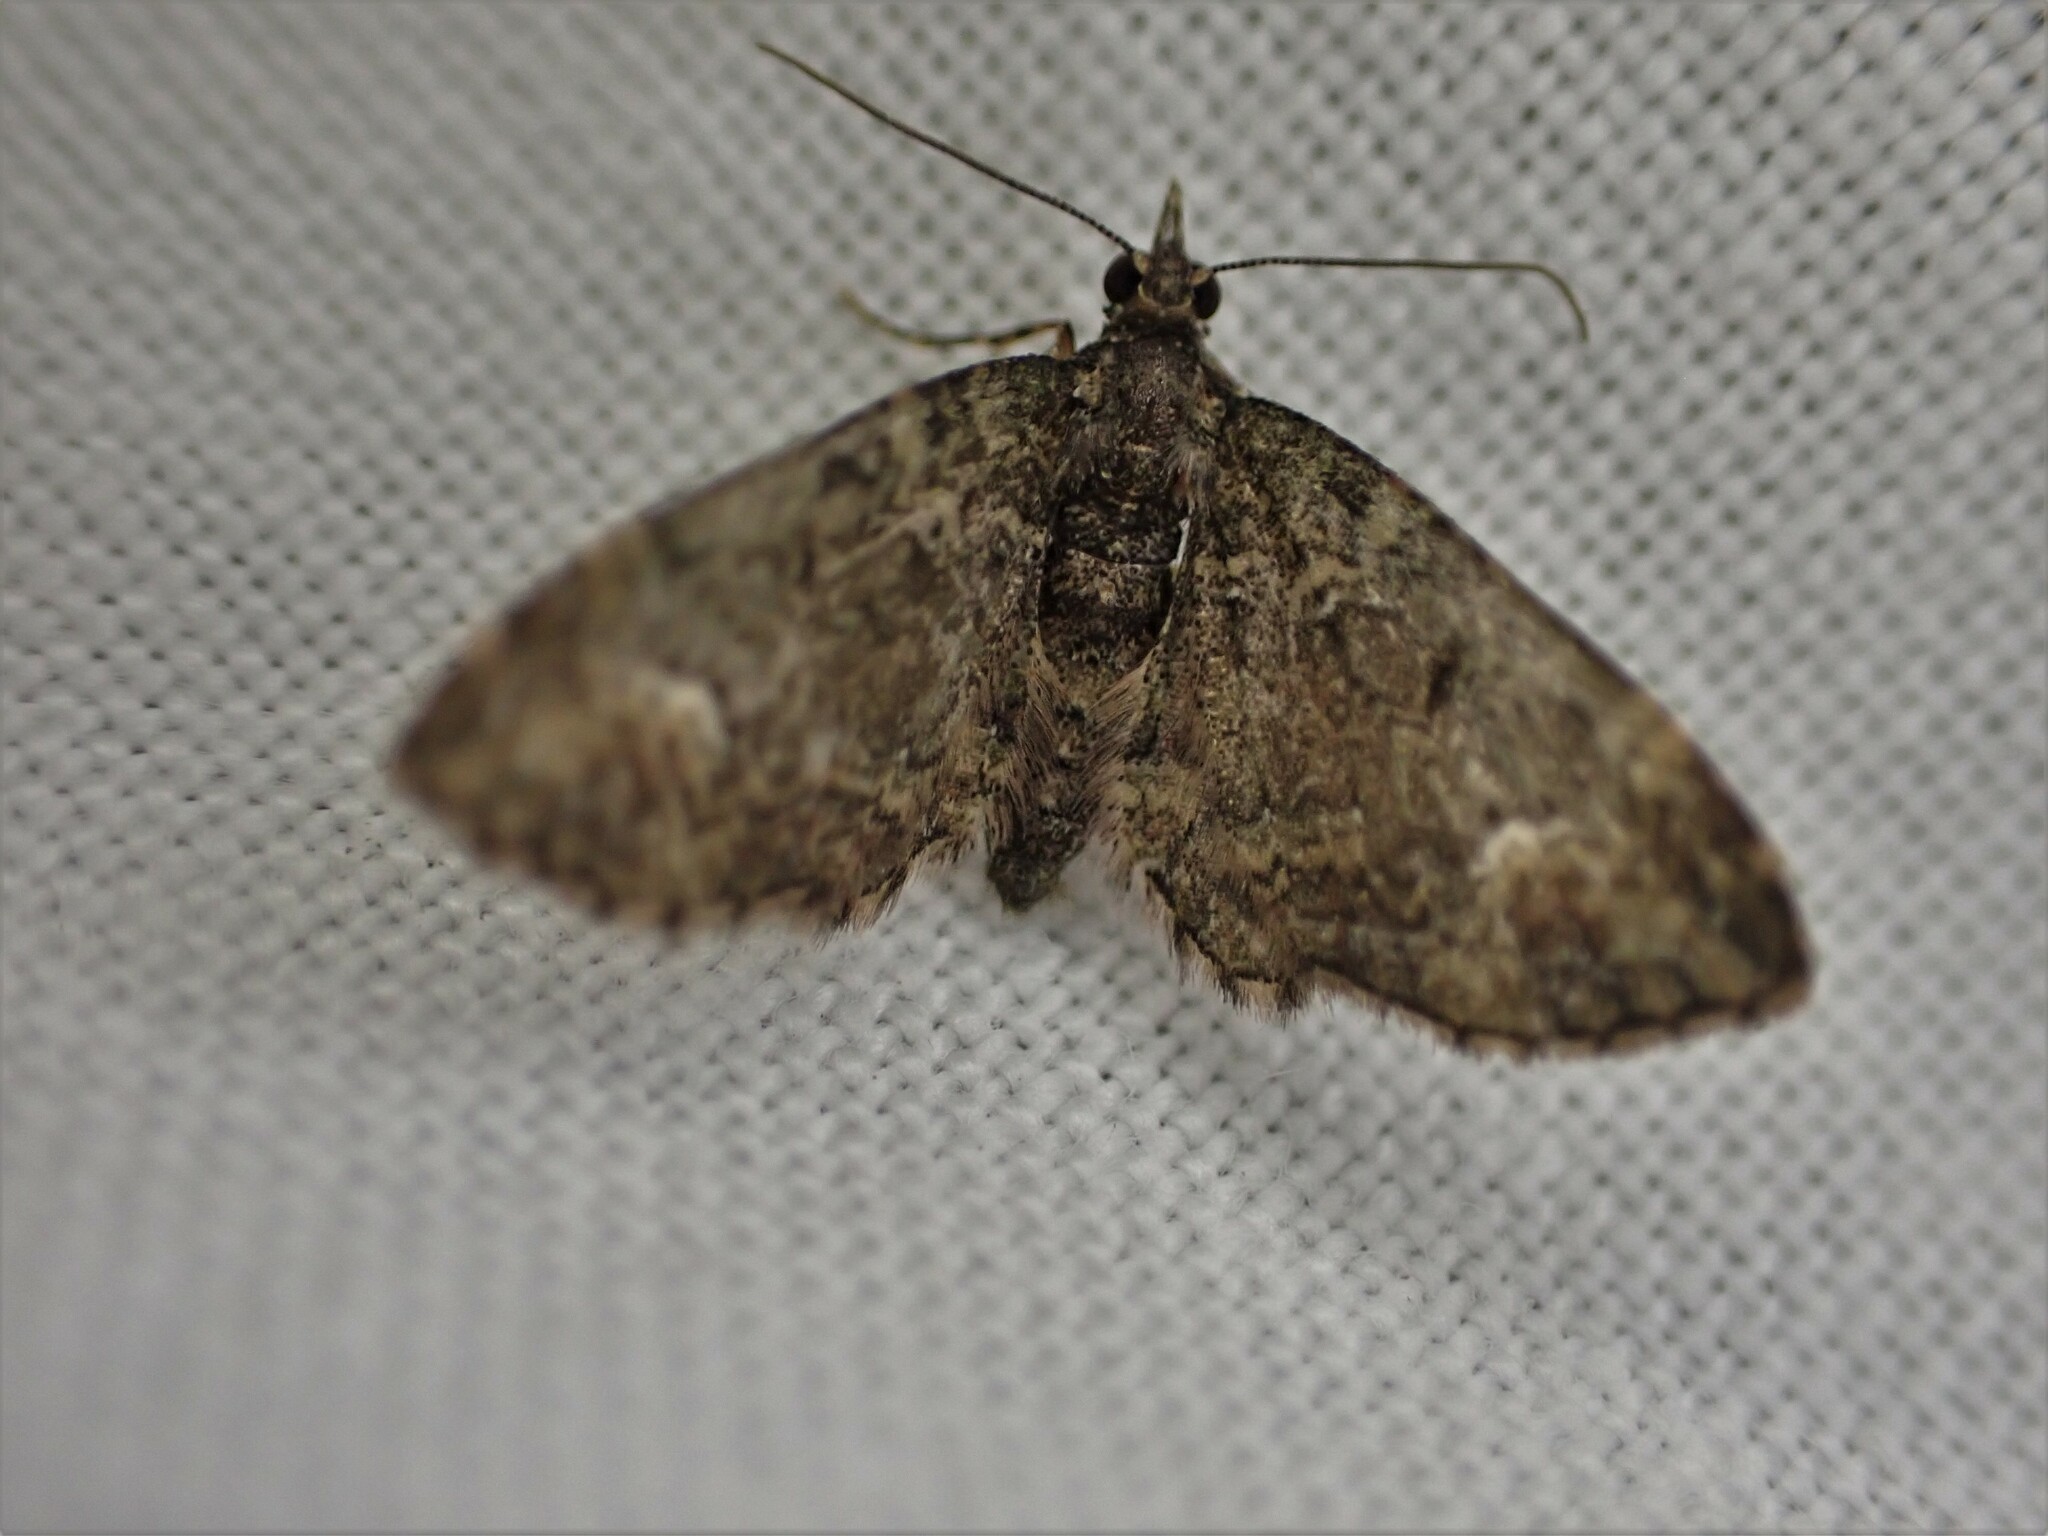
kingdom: Animalia
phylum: Arthropoda
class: Insecta
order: Lepidoptera
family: Geometridae
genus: Pasiphilodes
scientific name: Pasiphilodes testulata
